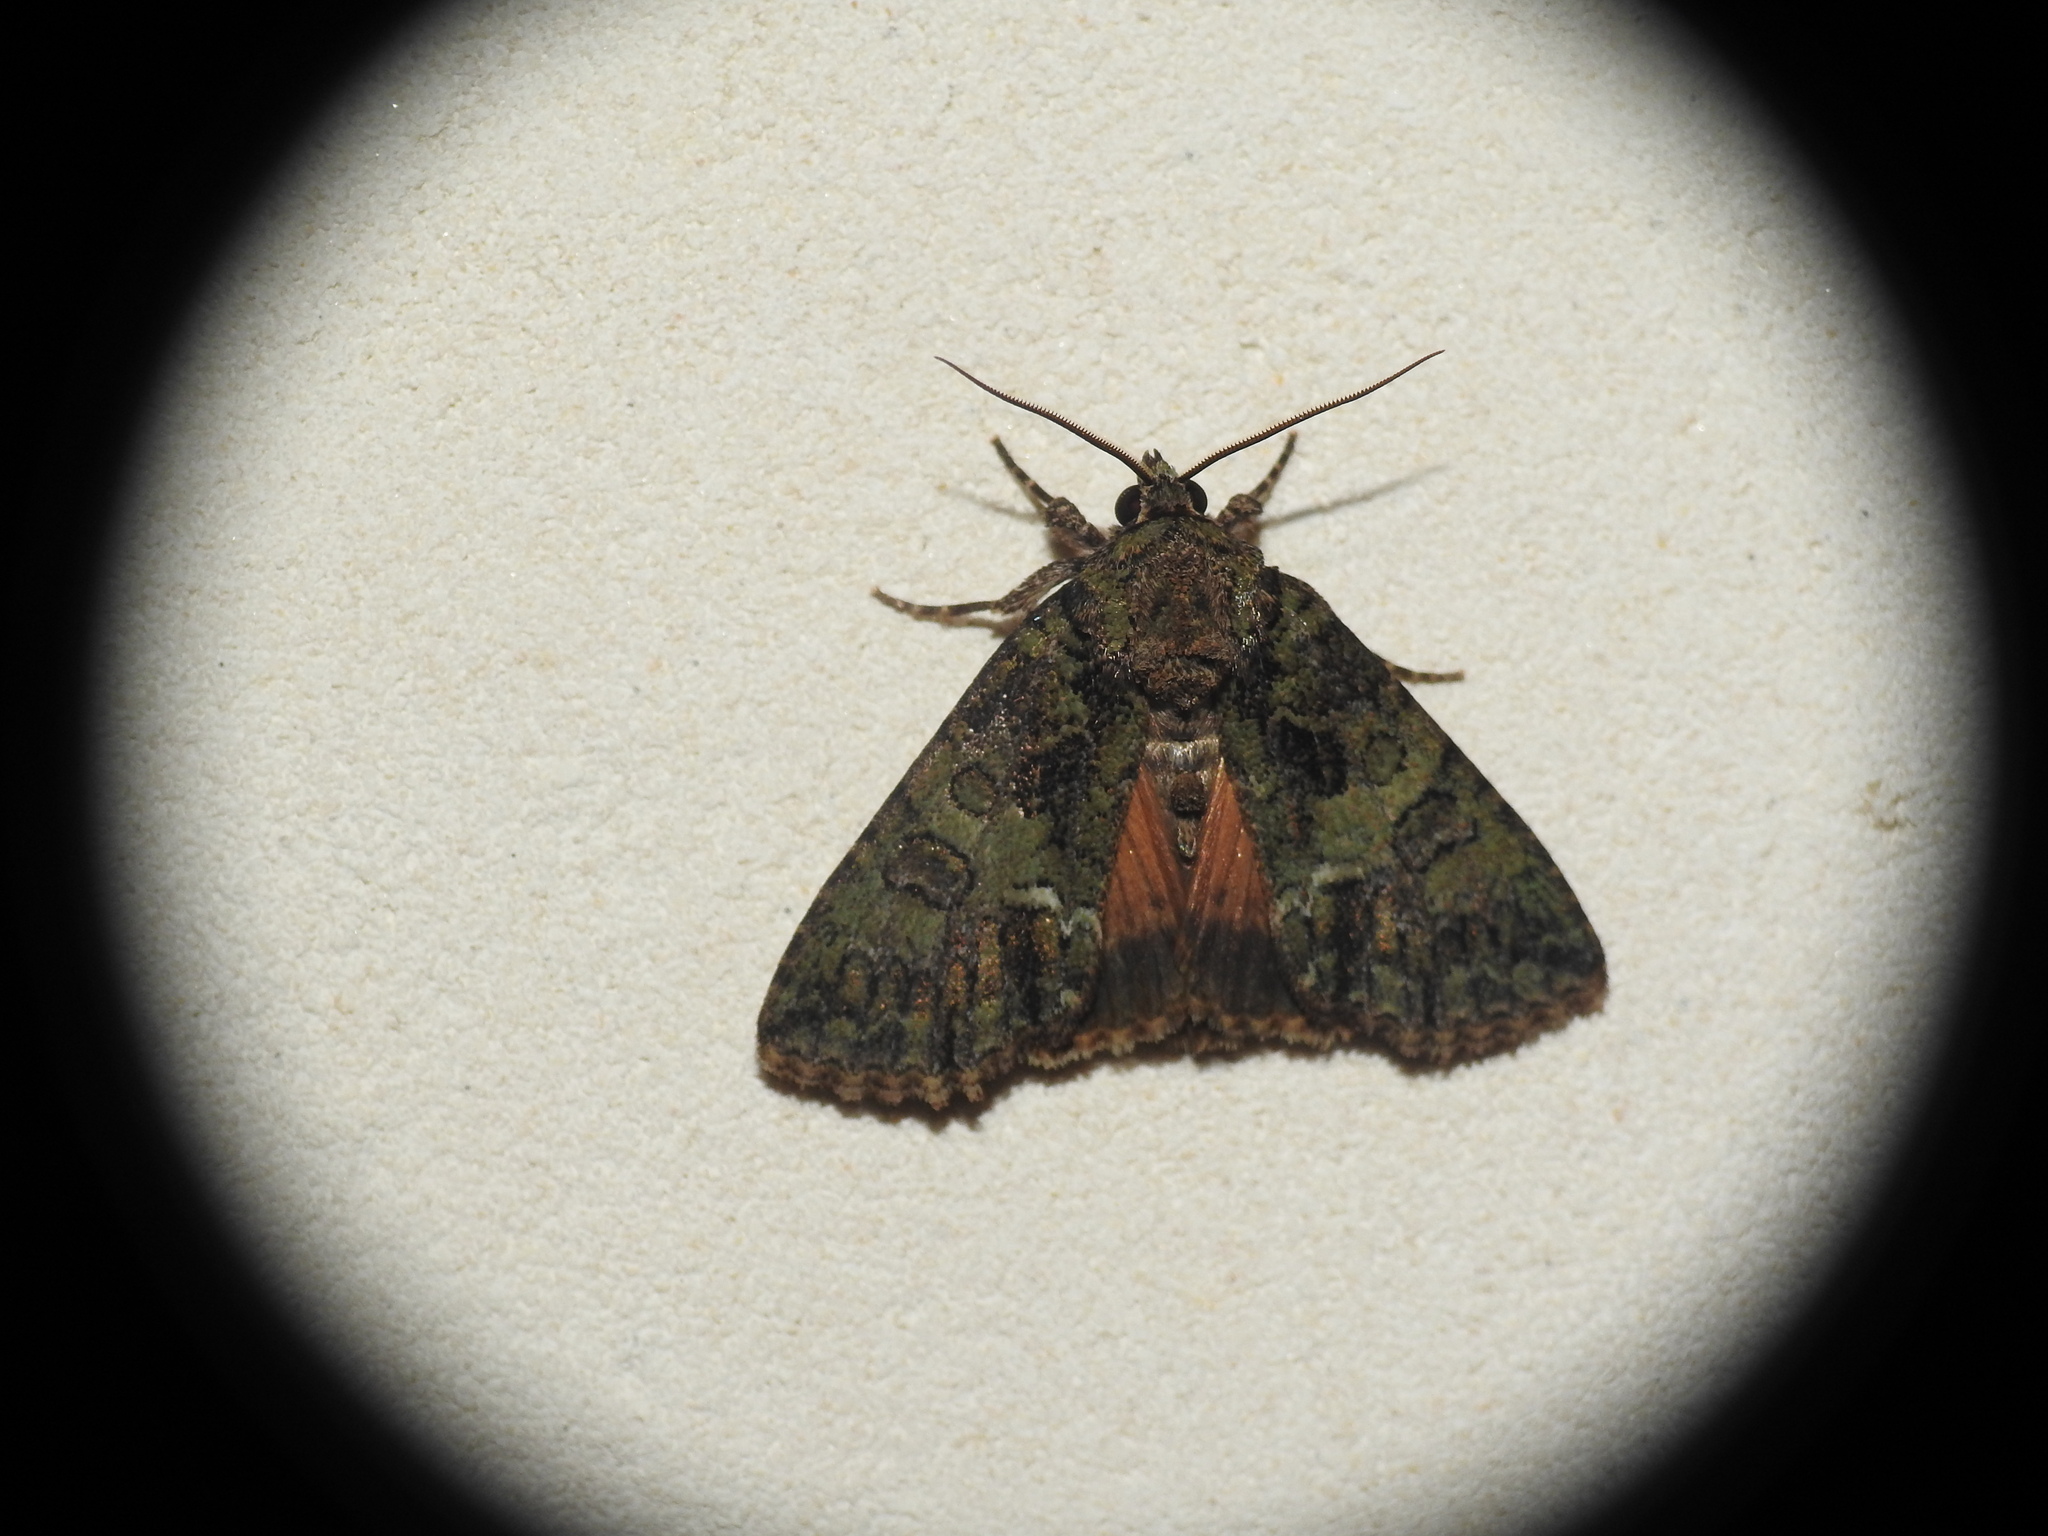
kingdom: Animalia
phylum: Arthropoda
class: Insecta
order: Lepidoptera
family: Noctuidae
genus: Polyphaenis
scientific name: Polyphaenis sericata
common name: Guernsey underwing
